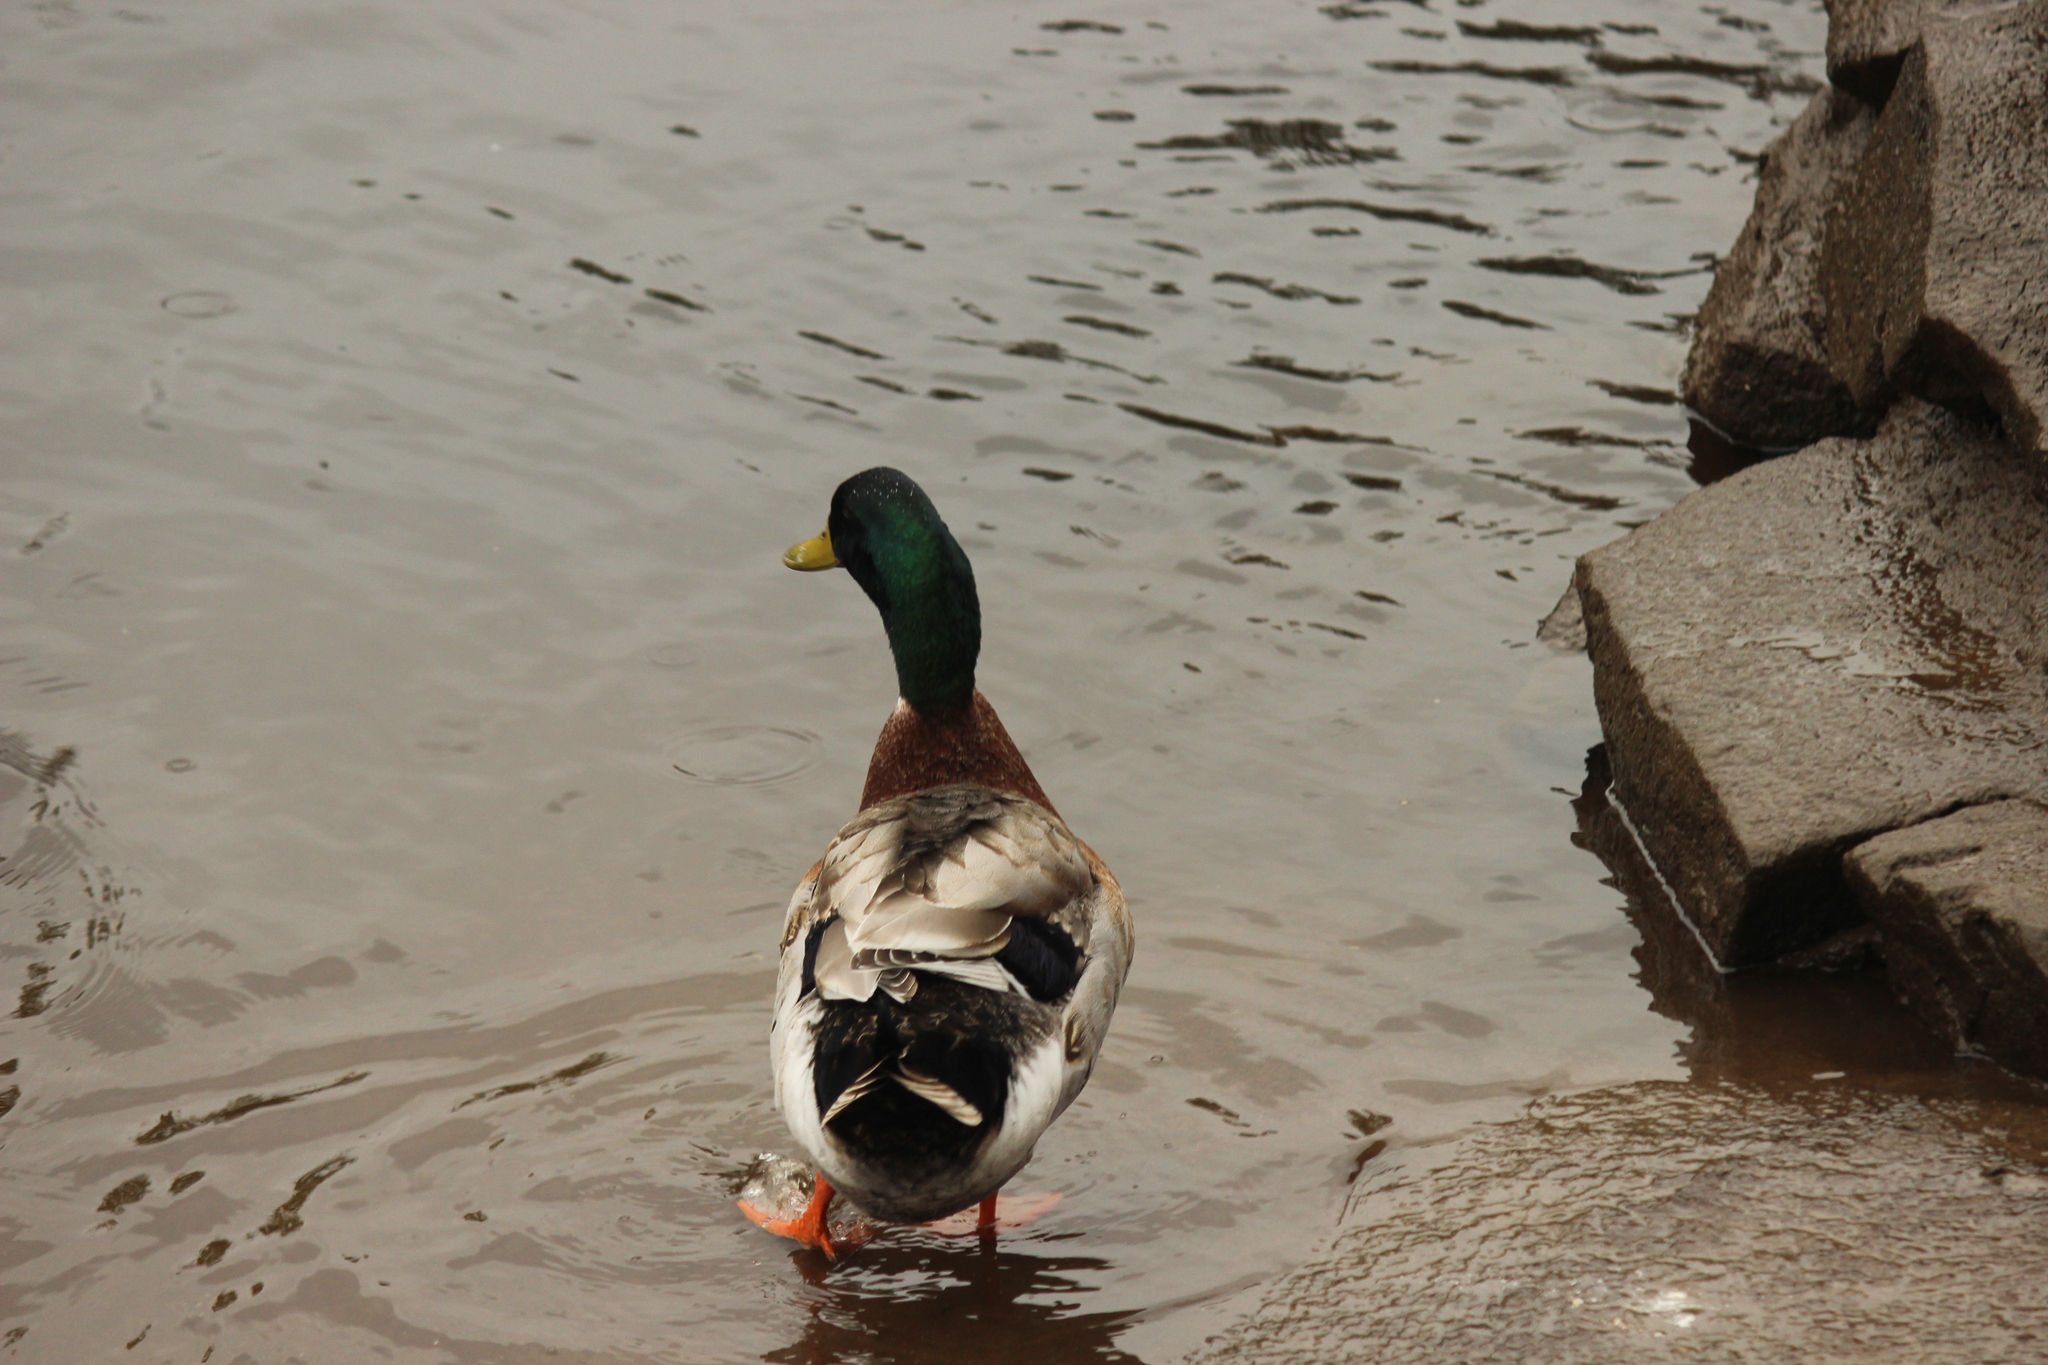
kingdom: Animalia
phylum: Chordata
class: Aves
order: Anseriformes
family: Anatidae
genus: Anas
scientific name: Anas platyrhynchos
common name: Mallard
